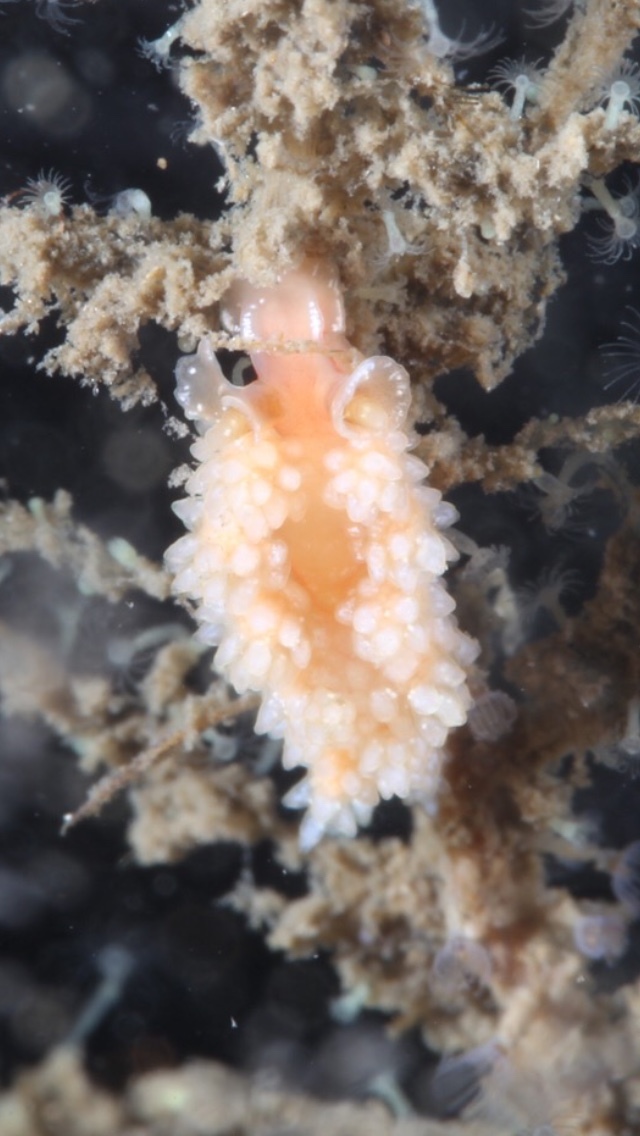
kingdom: Animalia
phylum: Mollusca
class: Gastropoda
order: Nudibranchia
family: Dotidae
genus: Doto
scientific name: Doto fragilis
